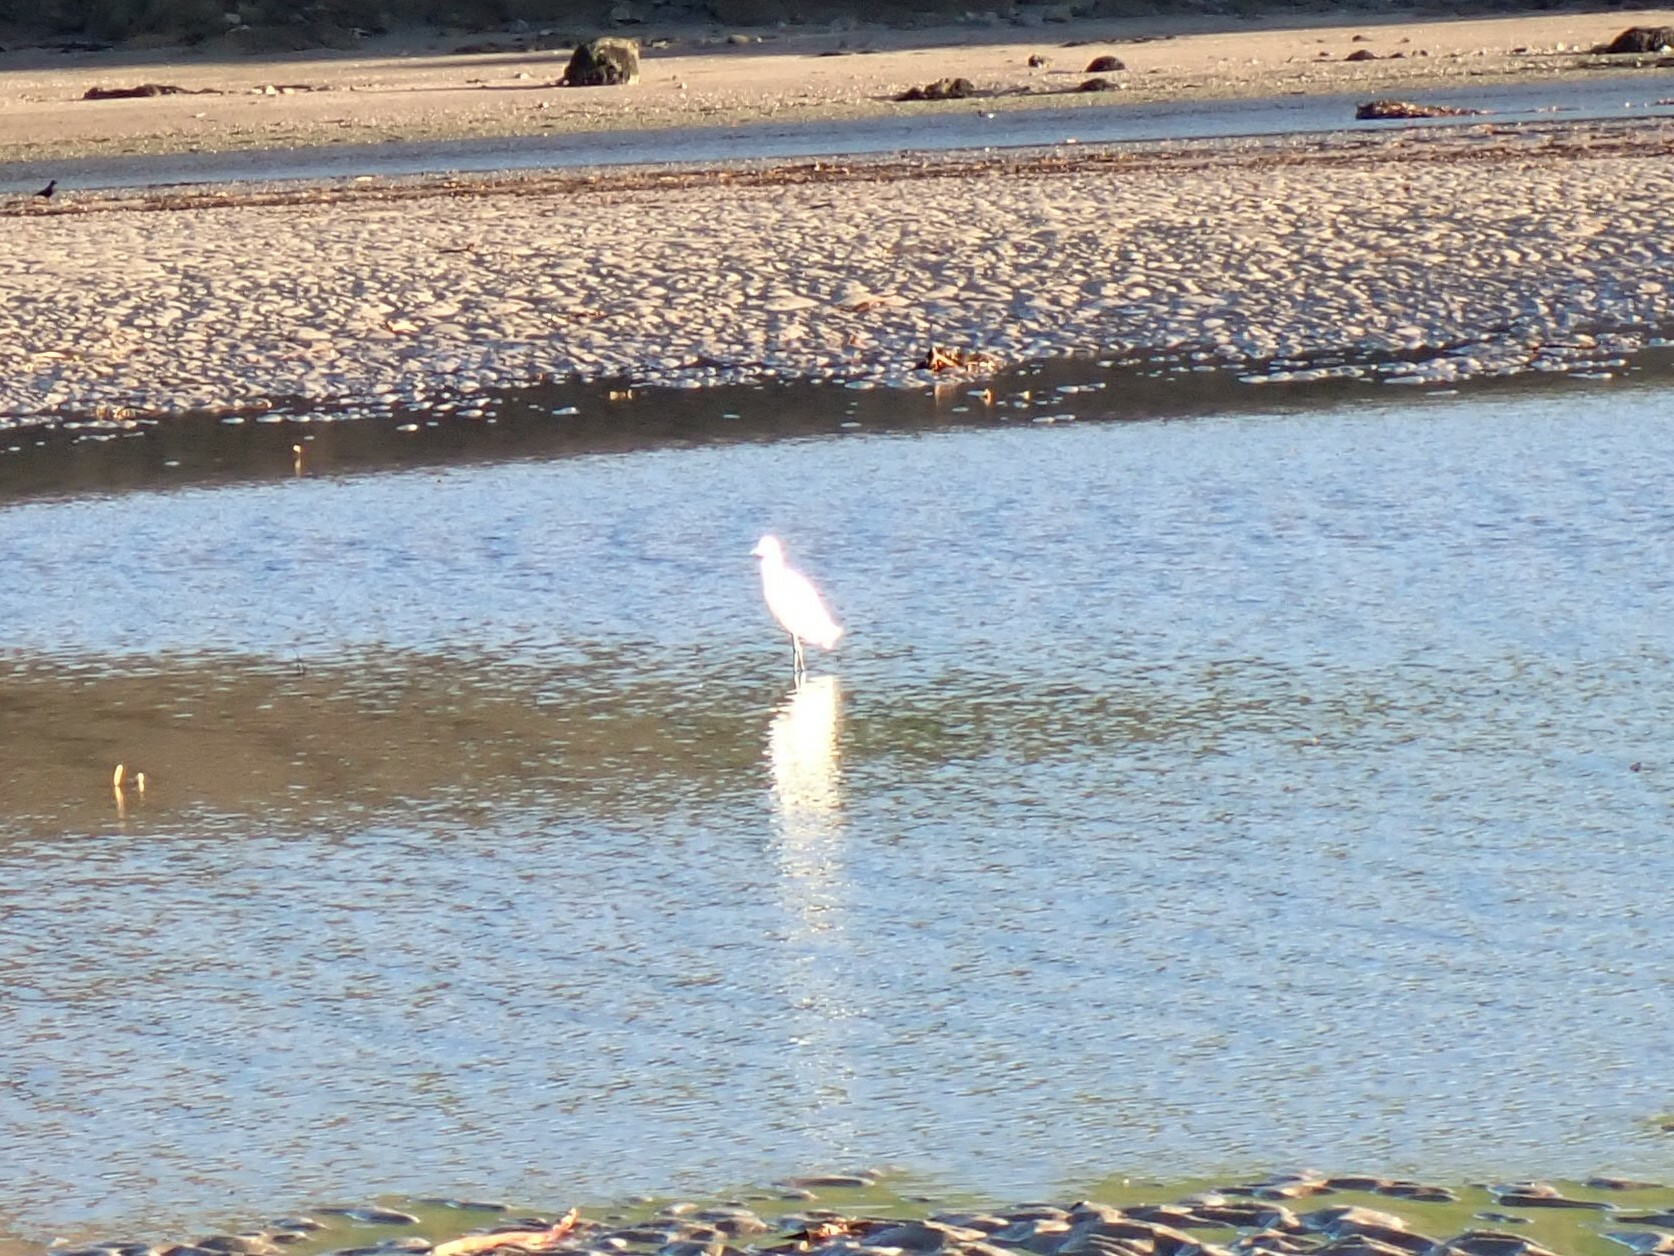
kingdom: Animalia
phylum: Chordata
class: Aves
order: Pelecaniformes
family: Ardeidae
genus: Egretta
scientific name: Egretta garzetta
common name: Little egret
